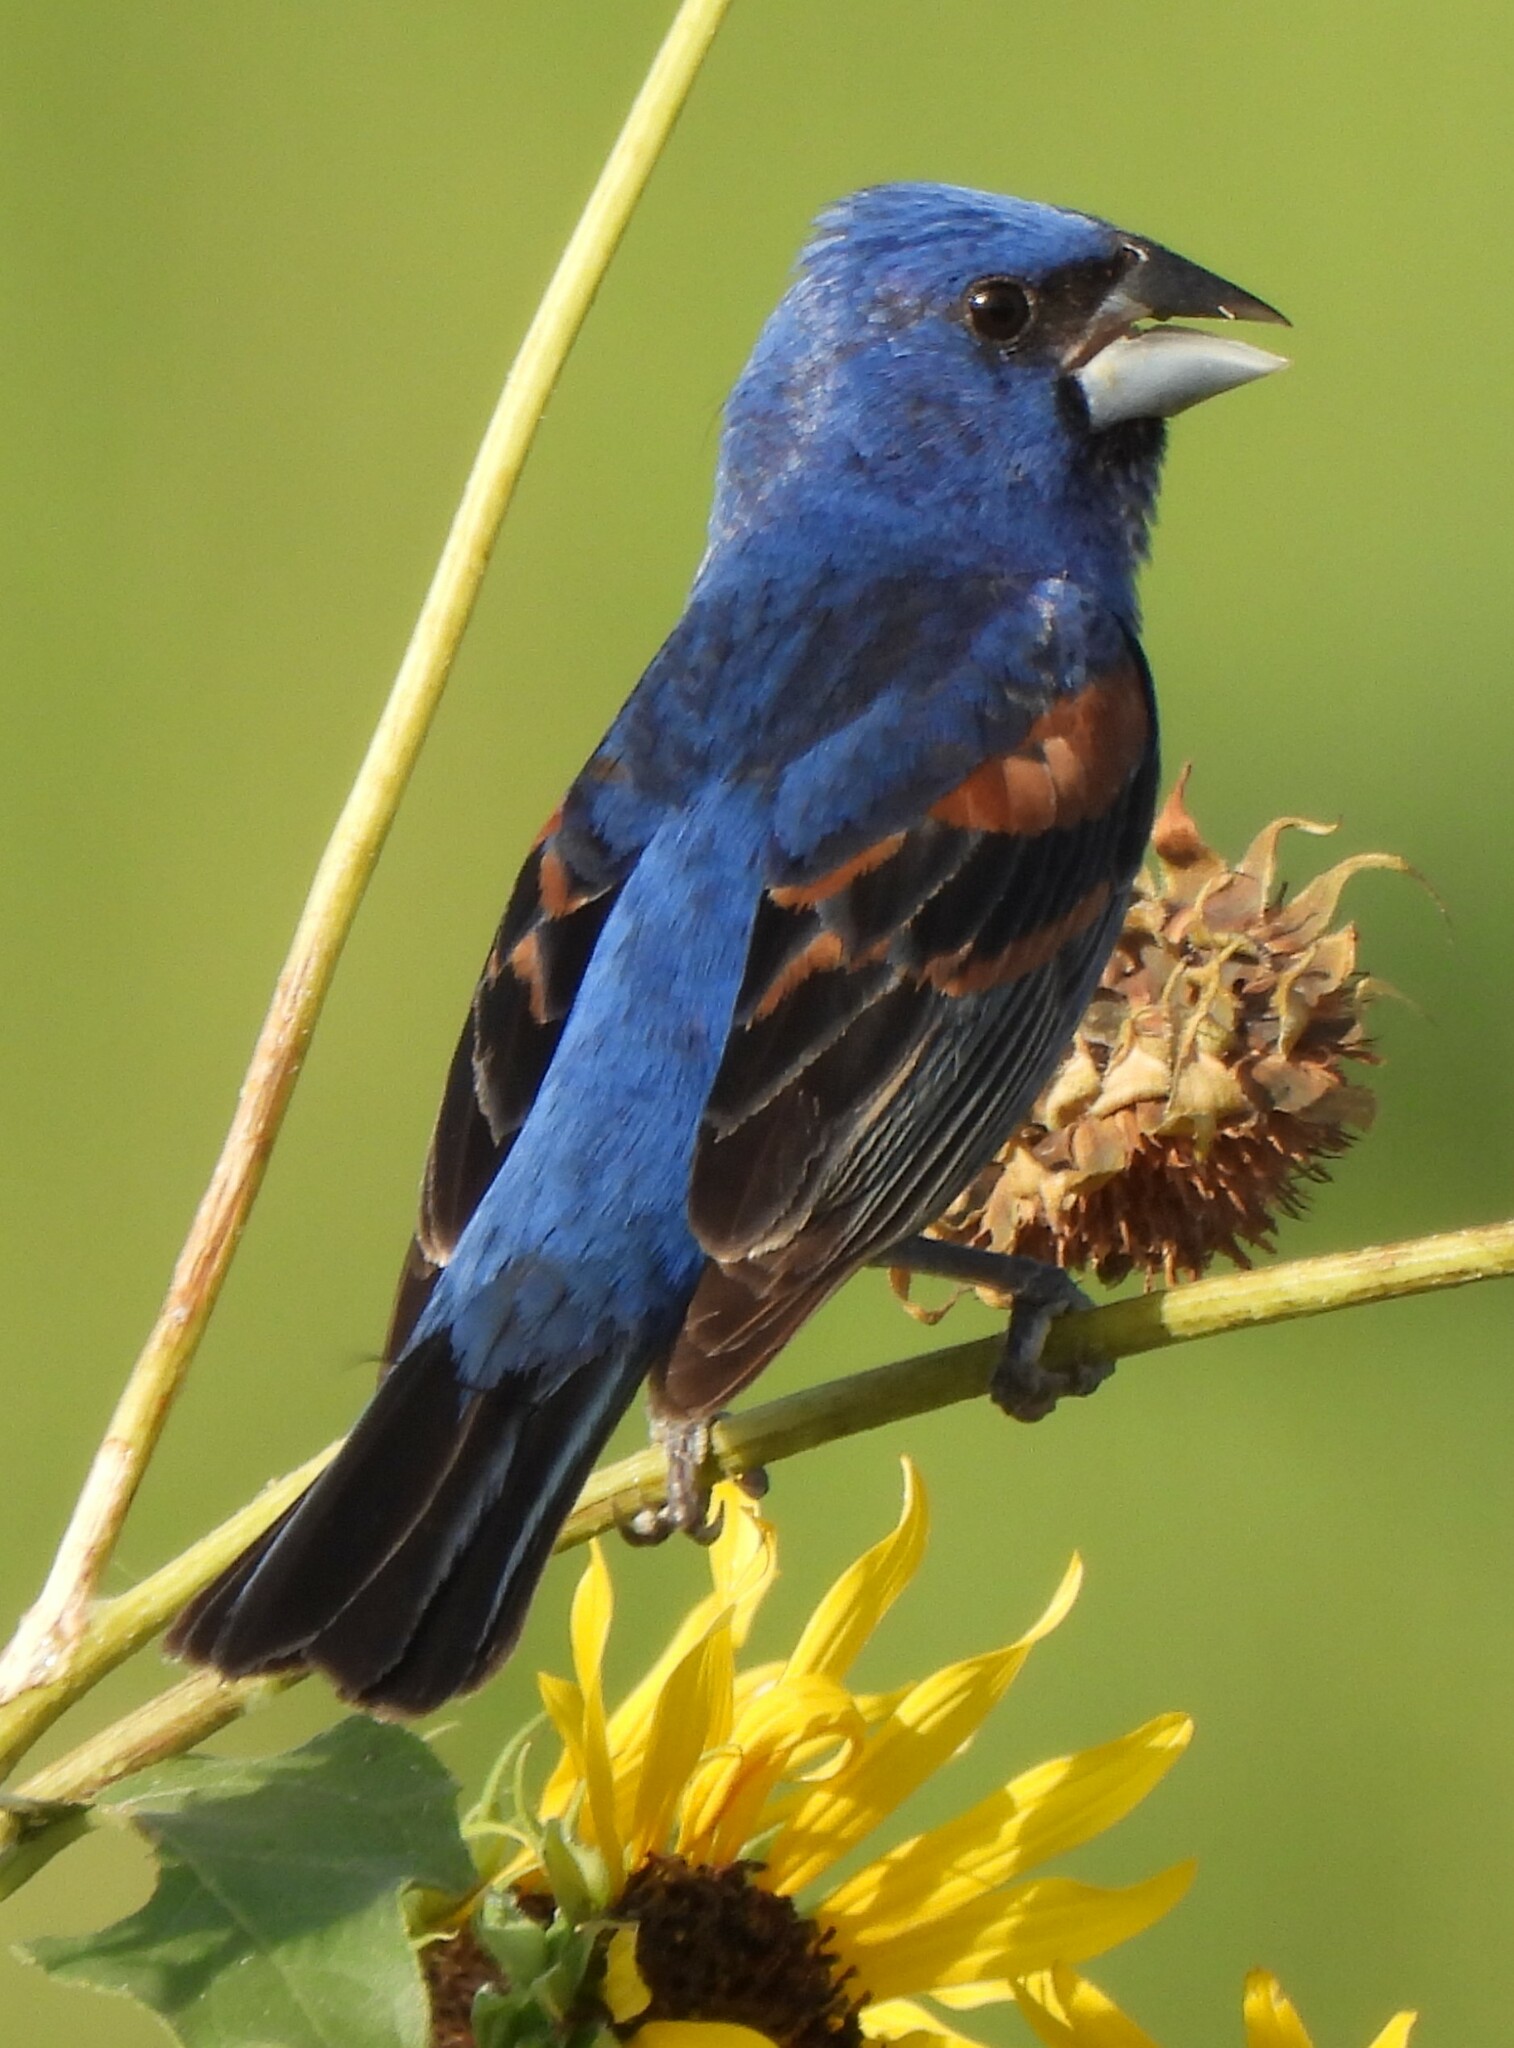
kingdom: Animalia
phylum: Chordata
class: Aves
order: Passeriformes
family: Cardinalidae
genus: Passerina
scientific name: Passerina caerulea
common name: Blue grosbeak
